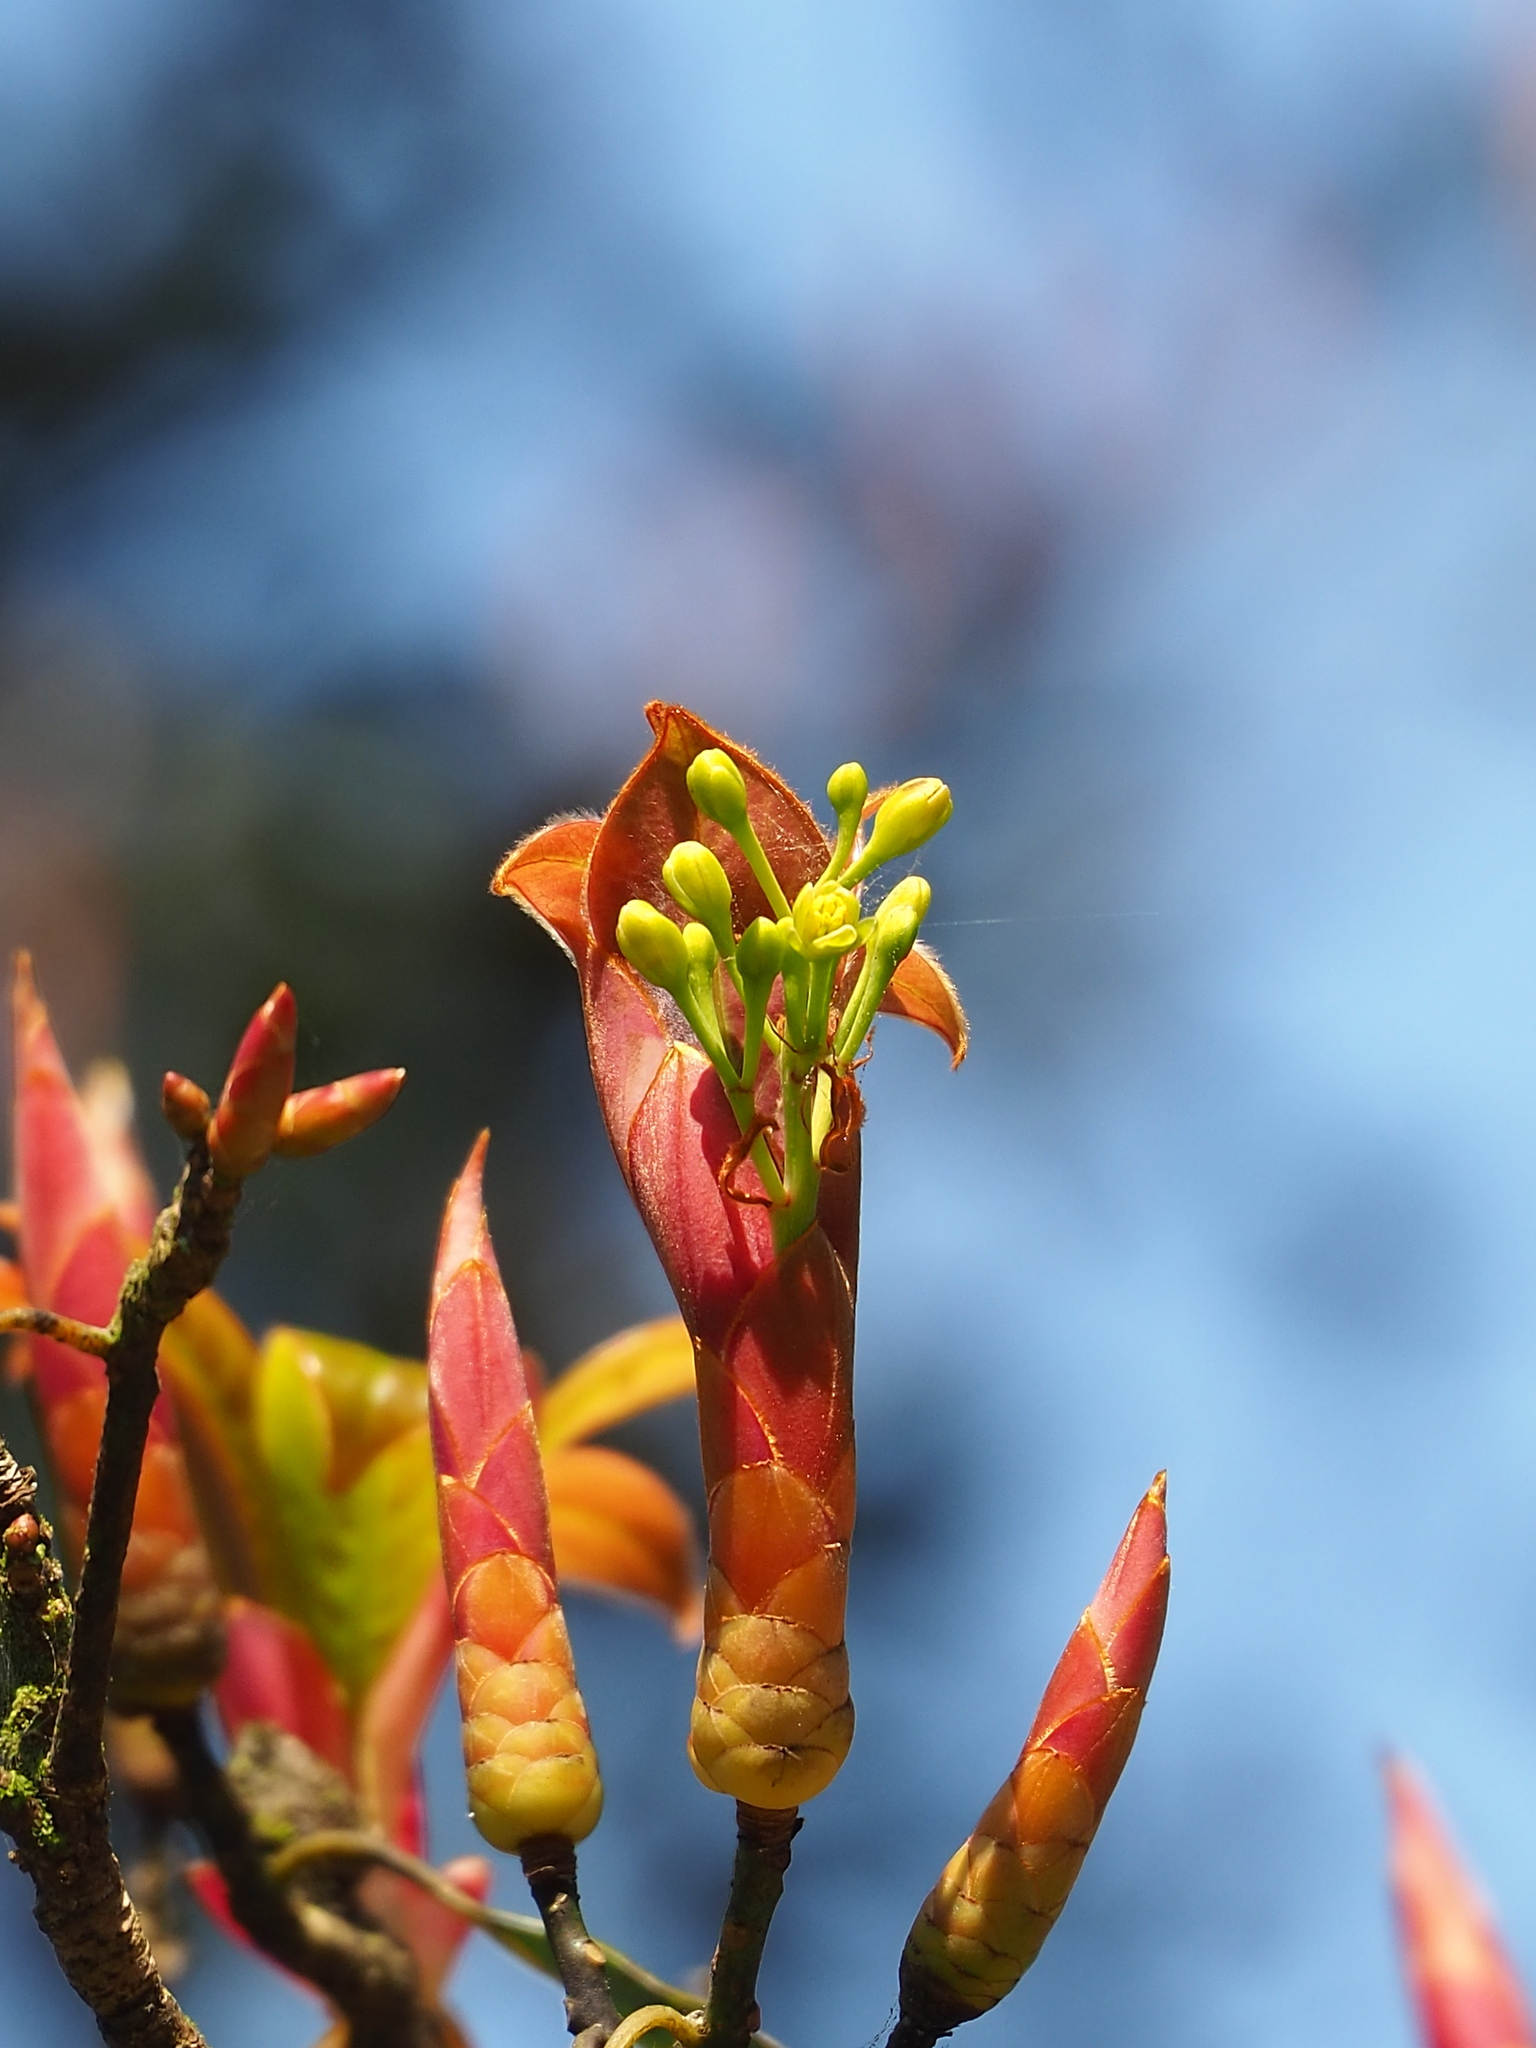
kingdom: Plantae
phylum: Tracheophyta
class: Magnoliopsida
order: Laurales
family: Lauraceae
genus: Machilus
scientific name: Machilus thunbergii
